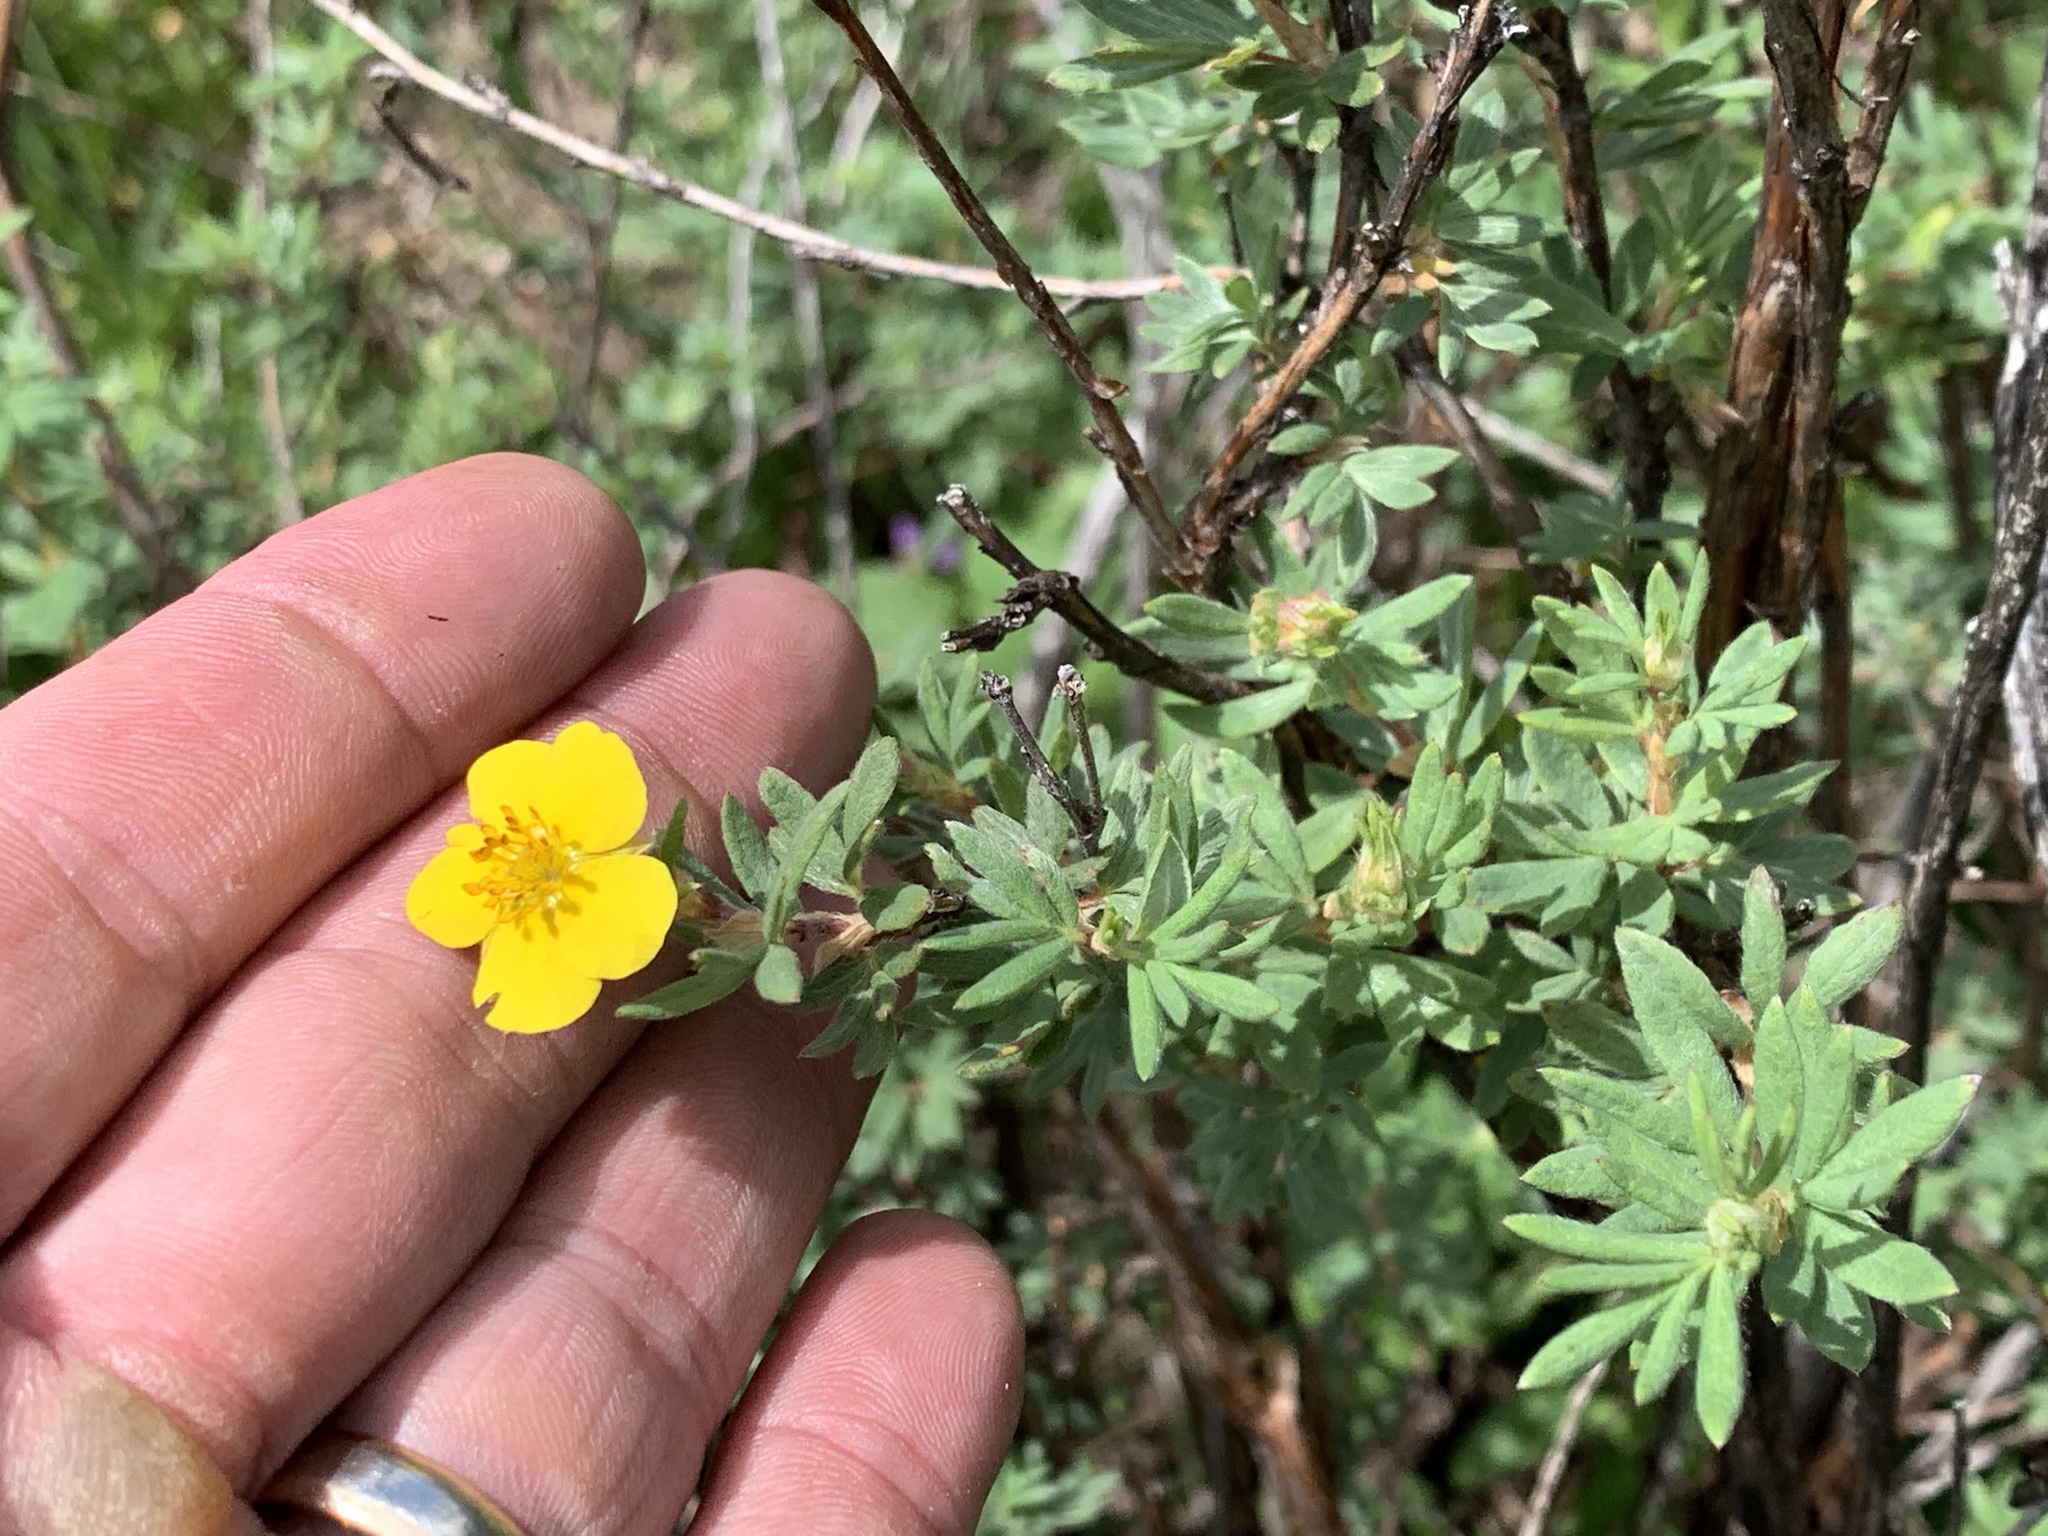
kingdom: Plantae
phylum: Tracheophyta
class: Magnoliopsida
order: Rosales
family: Rosaceae
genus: Dasiphora
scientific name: Dasiphora fruticosa
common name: Shrubby cinquefoil
